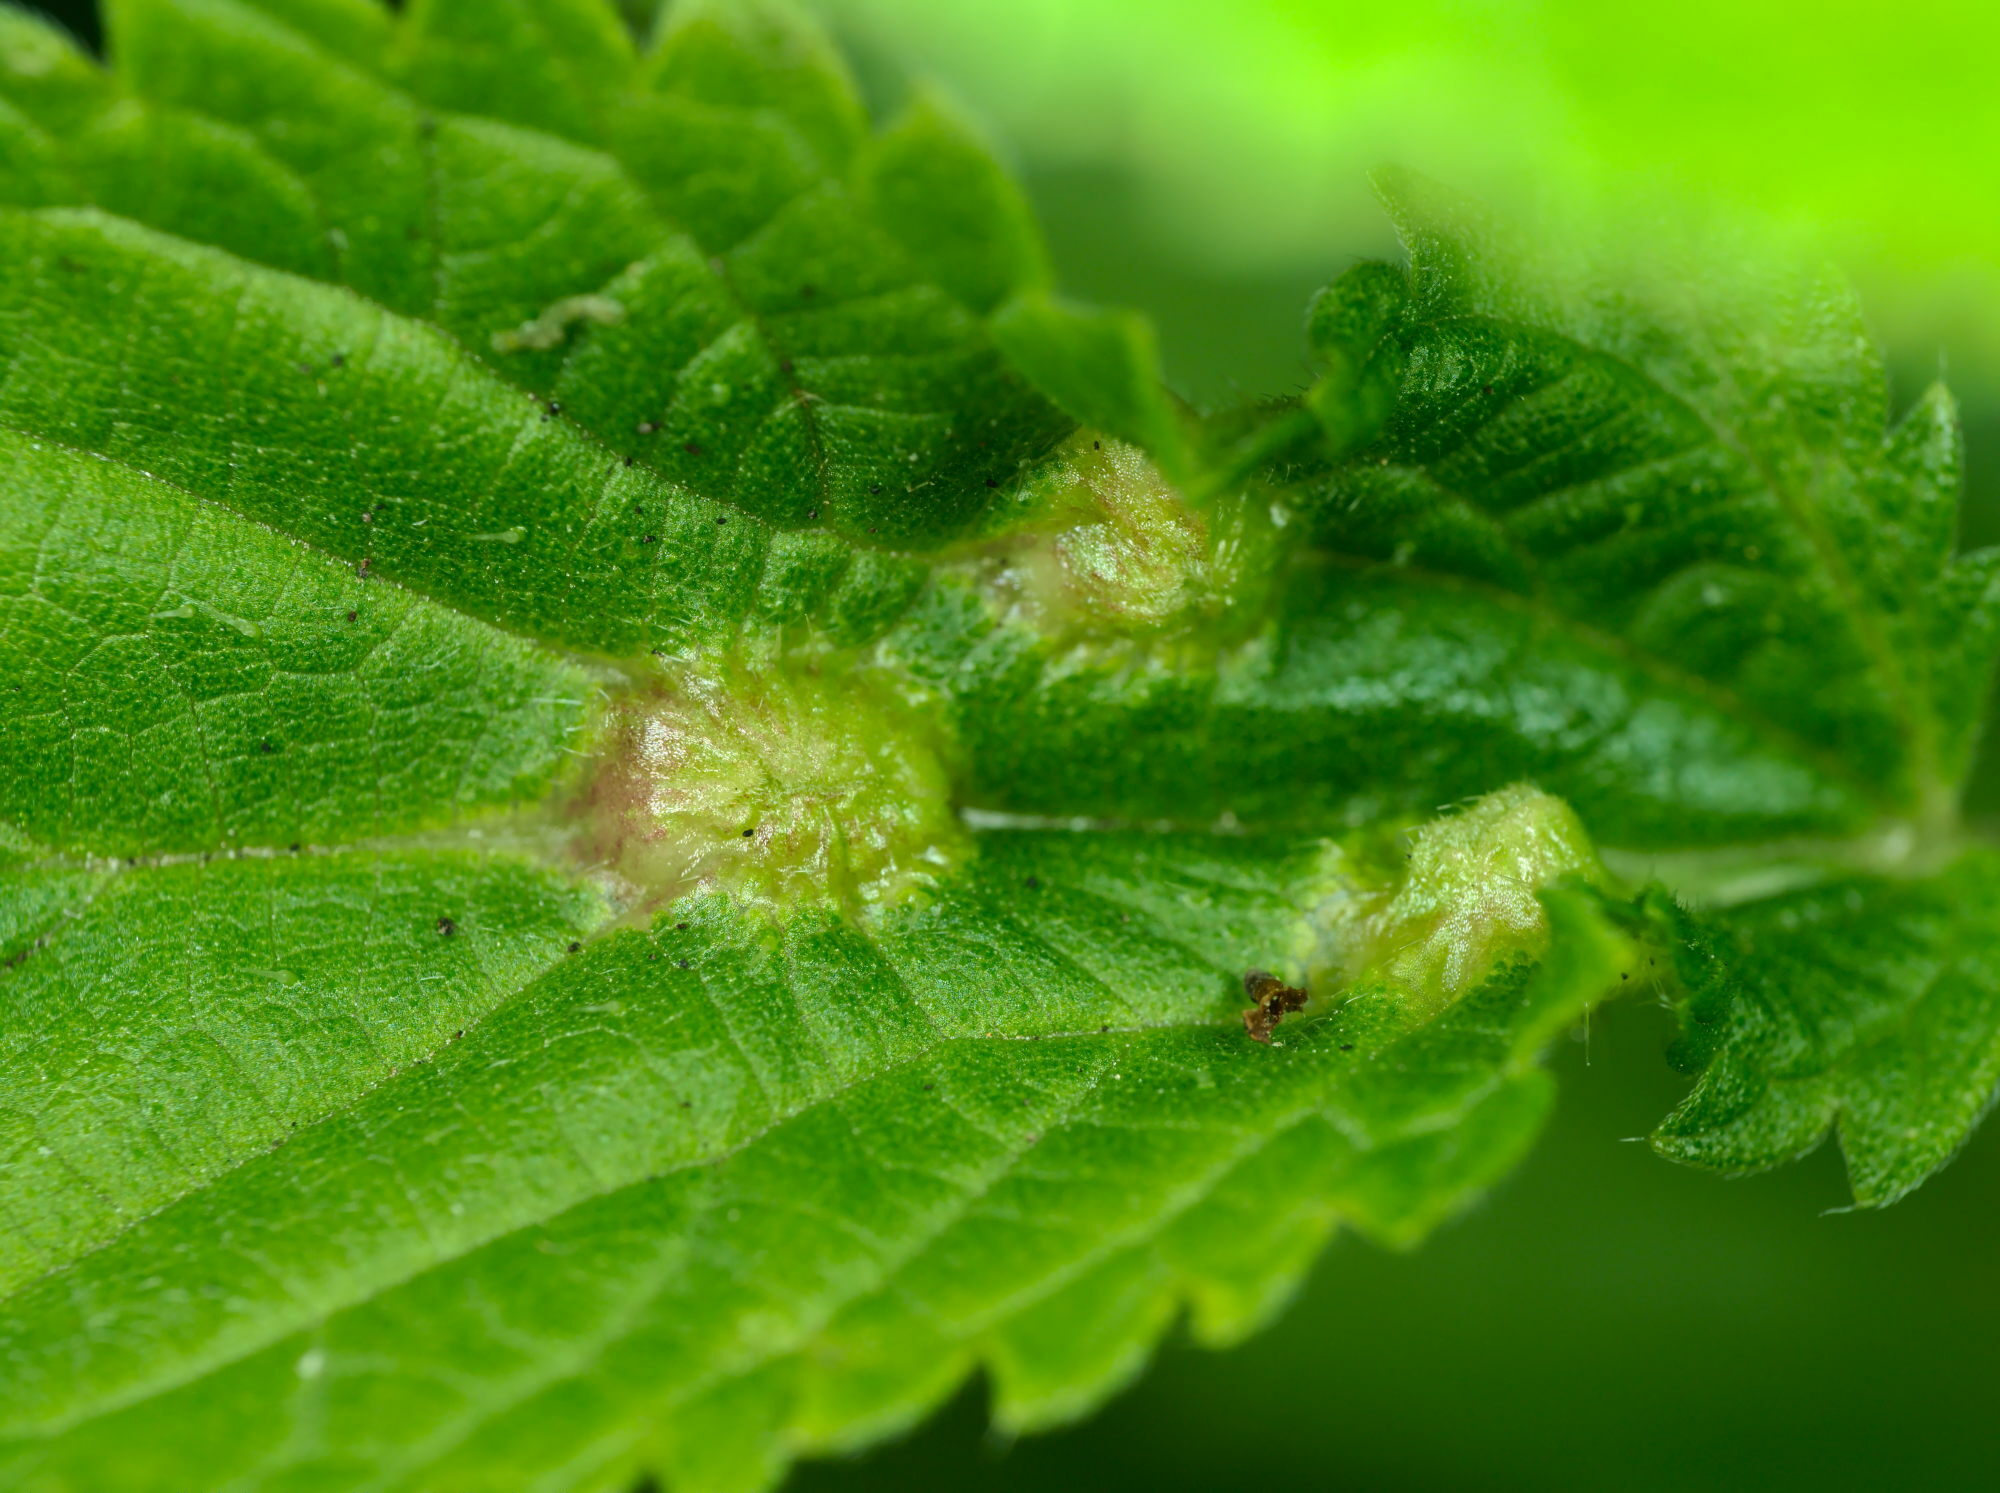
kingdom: Animalia
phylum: Arthropoda
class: Insecta
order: Diptera
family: Cecidomyiidae
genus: Dasineura
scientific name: Dasineura urticae
